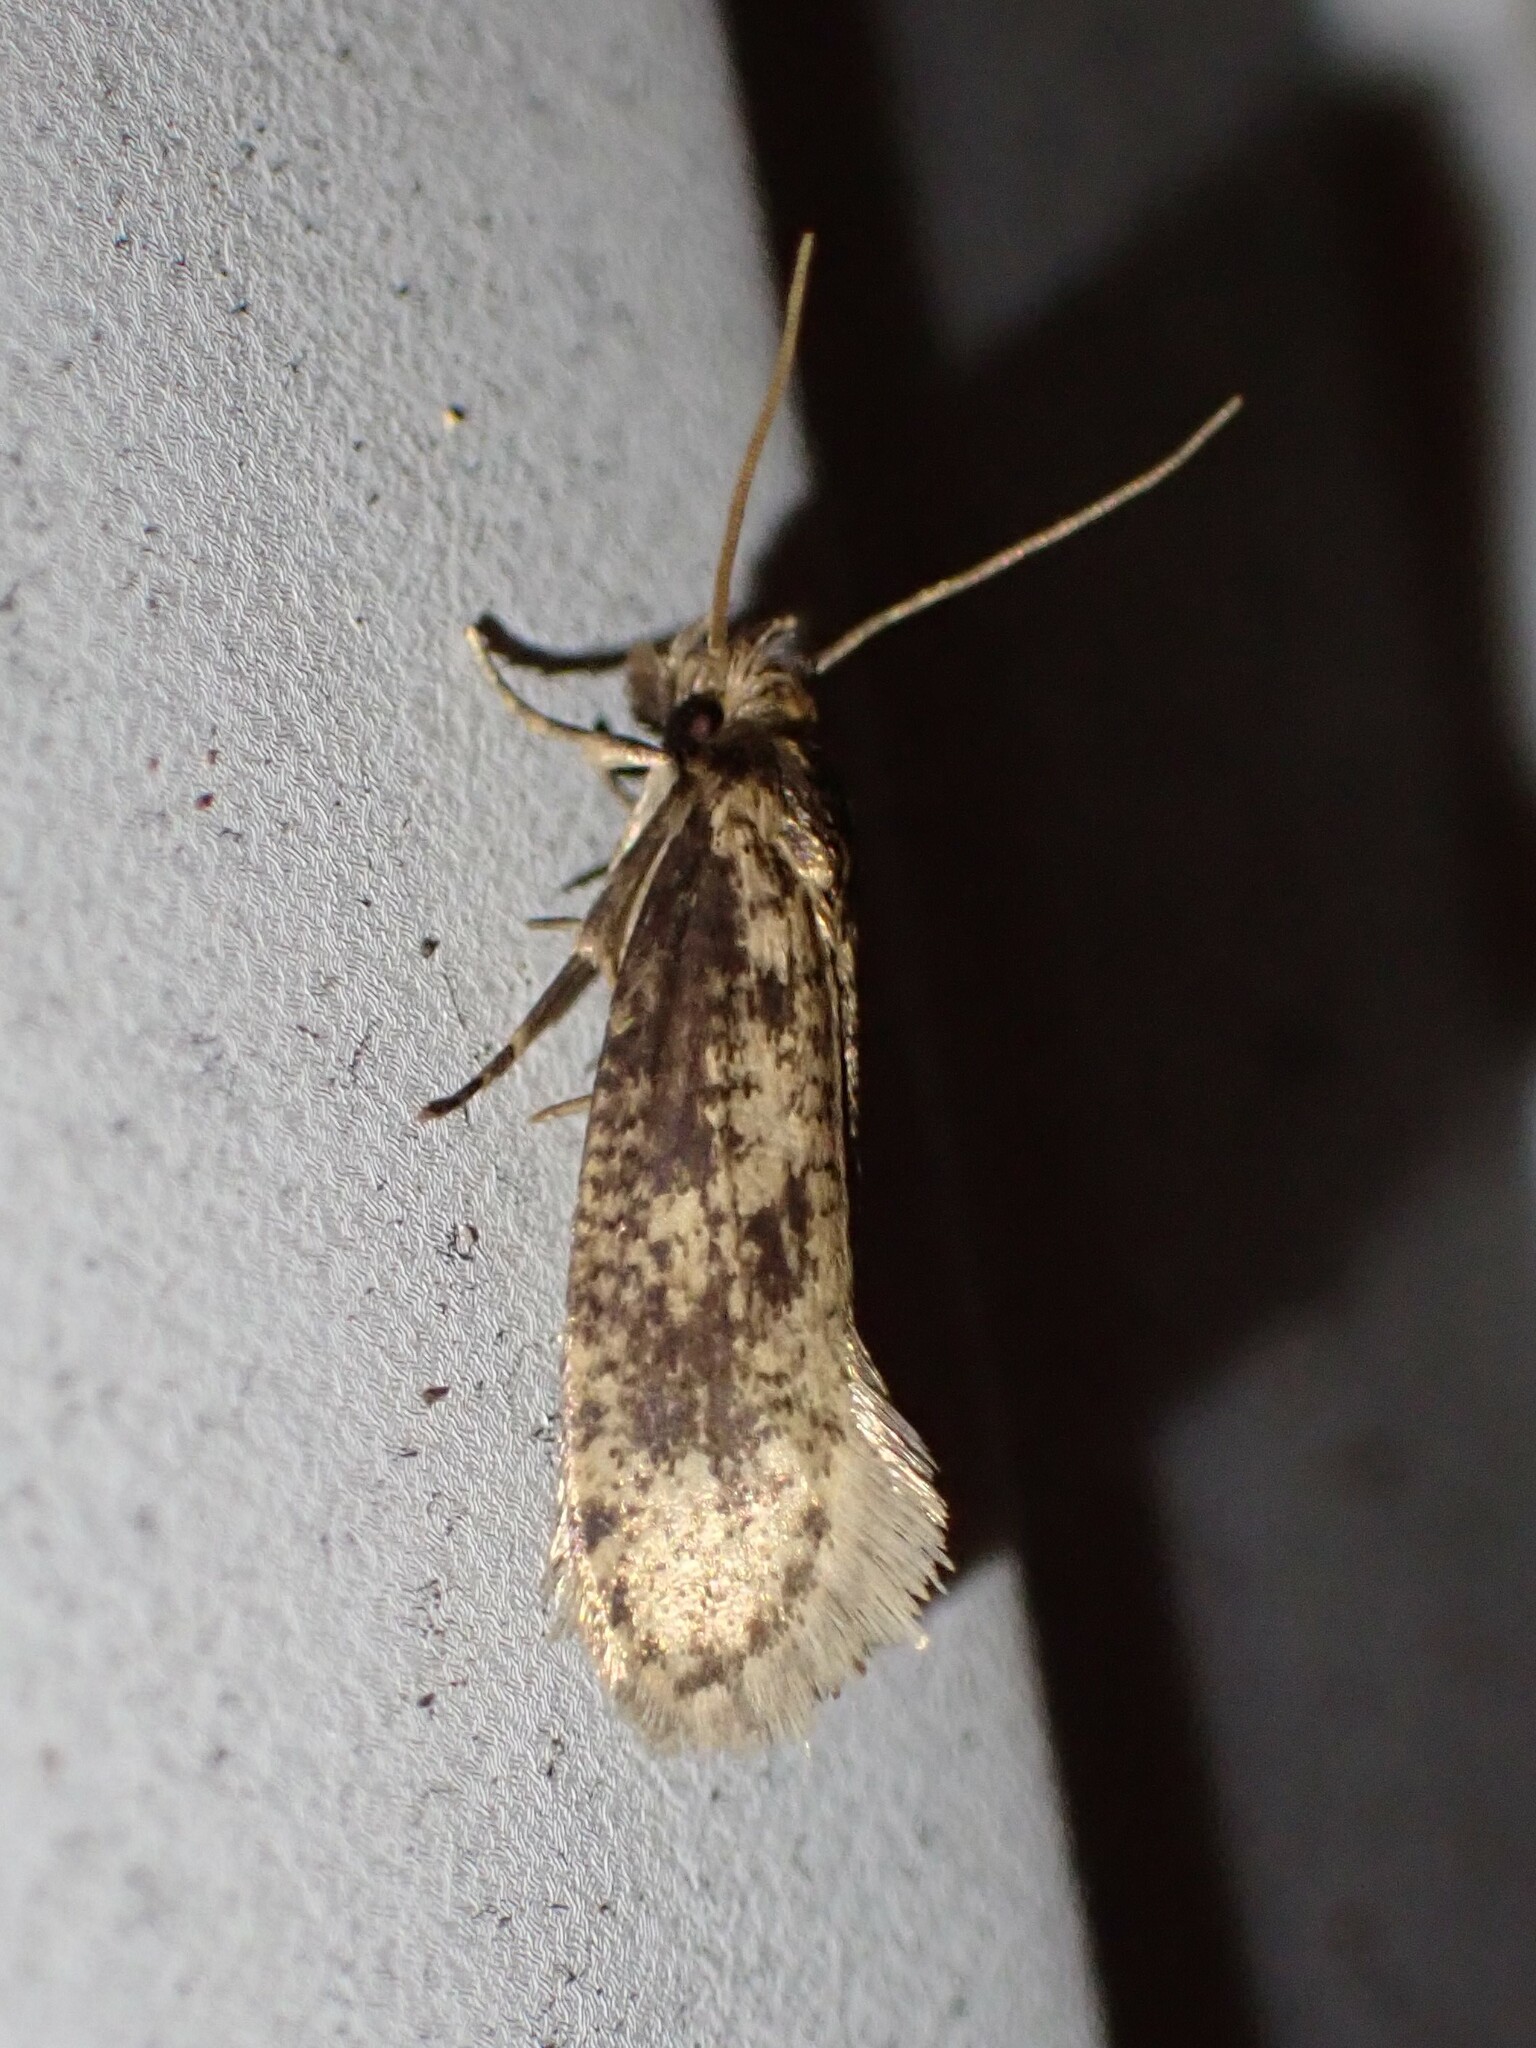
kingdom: Animalia
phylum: Arthropoda
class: Insecta
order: Lepidoptera
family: Tineidae
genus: Amydria
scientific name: Amydria effrentella
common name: Brown-blotched amydria moth
